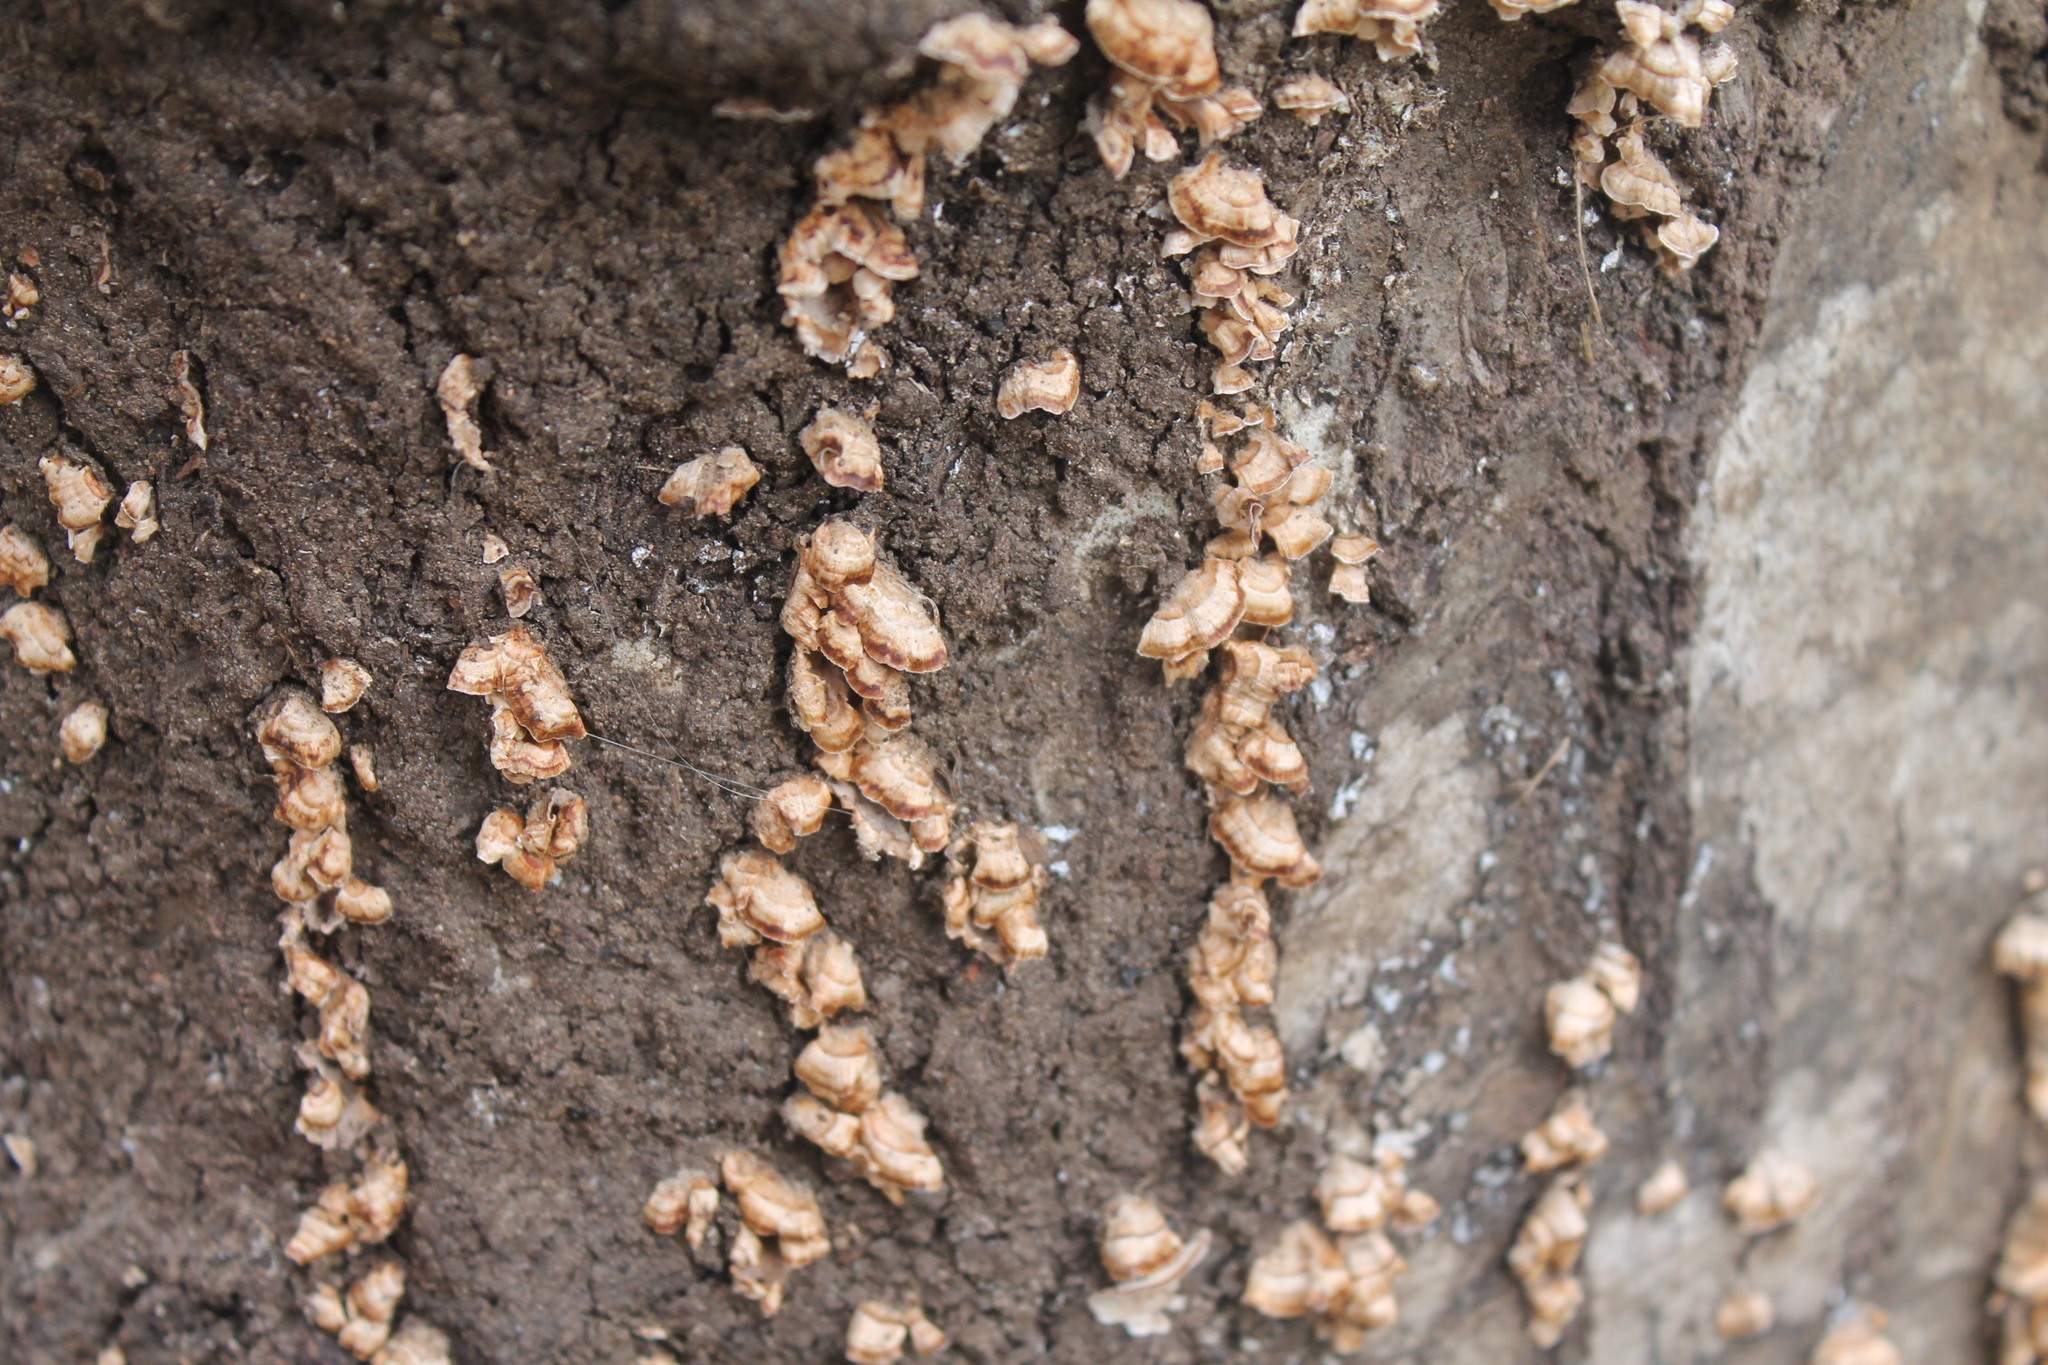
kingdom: Fungi
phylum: Basidiomycota
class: Agaricomycetes
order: Russulales
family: Stereaceae
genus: Stereum
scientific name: Stereum complicatum
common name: Crowded parchment
